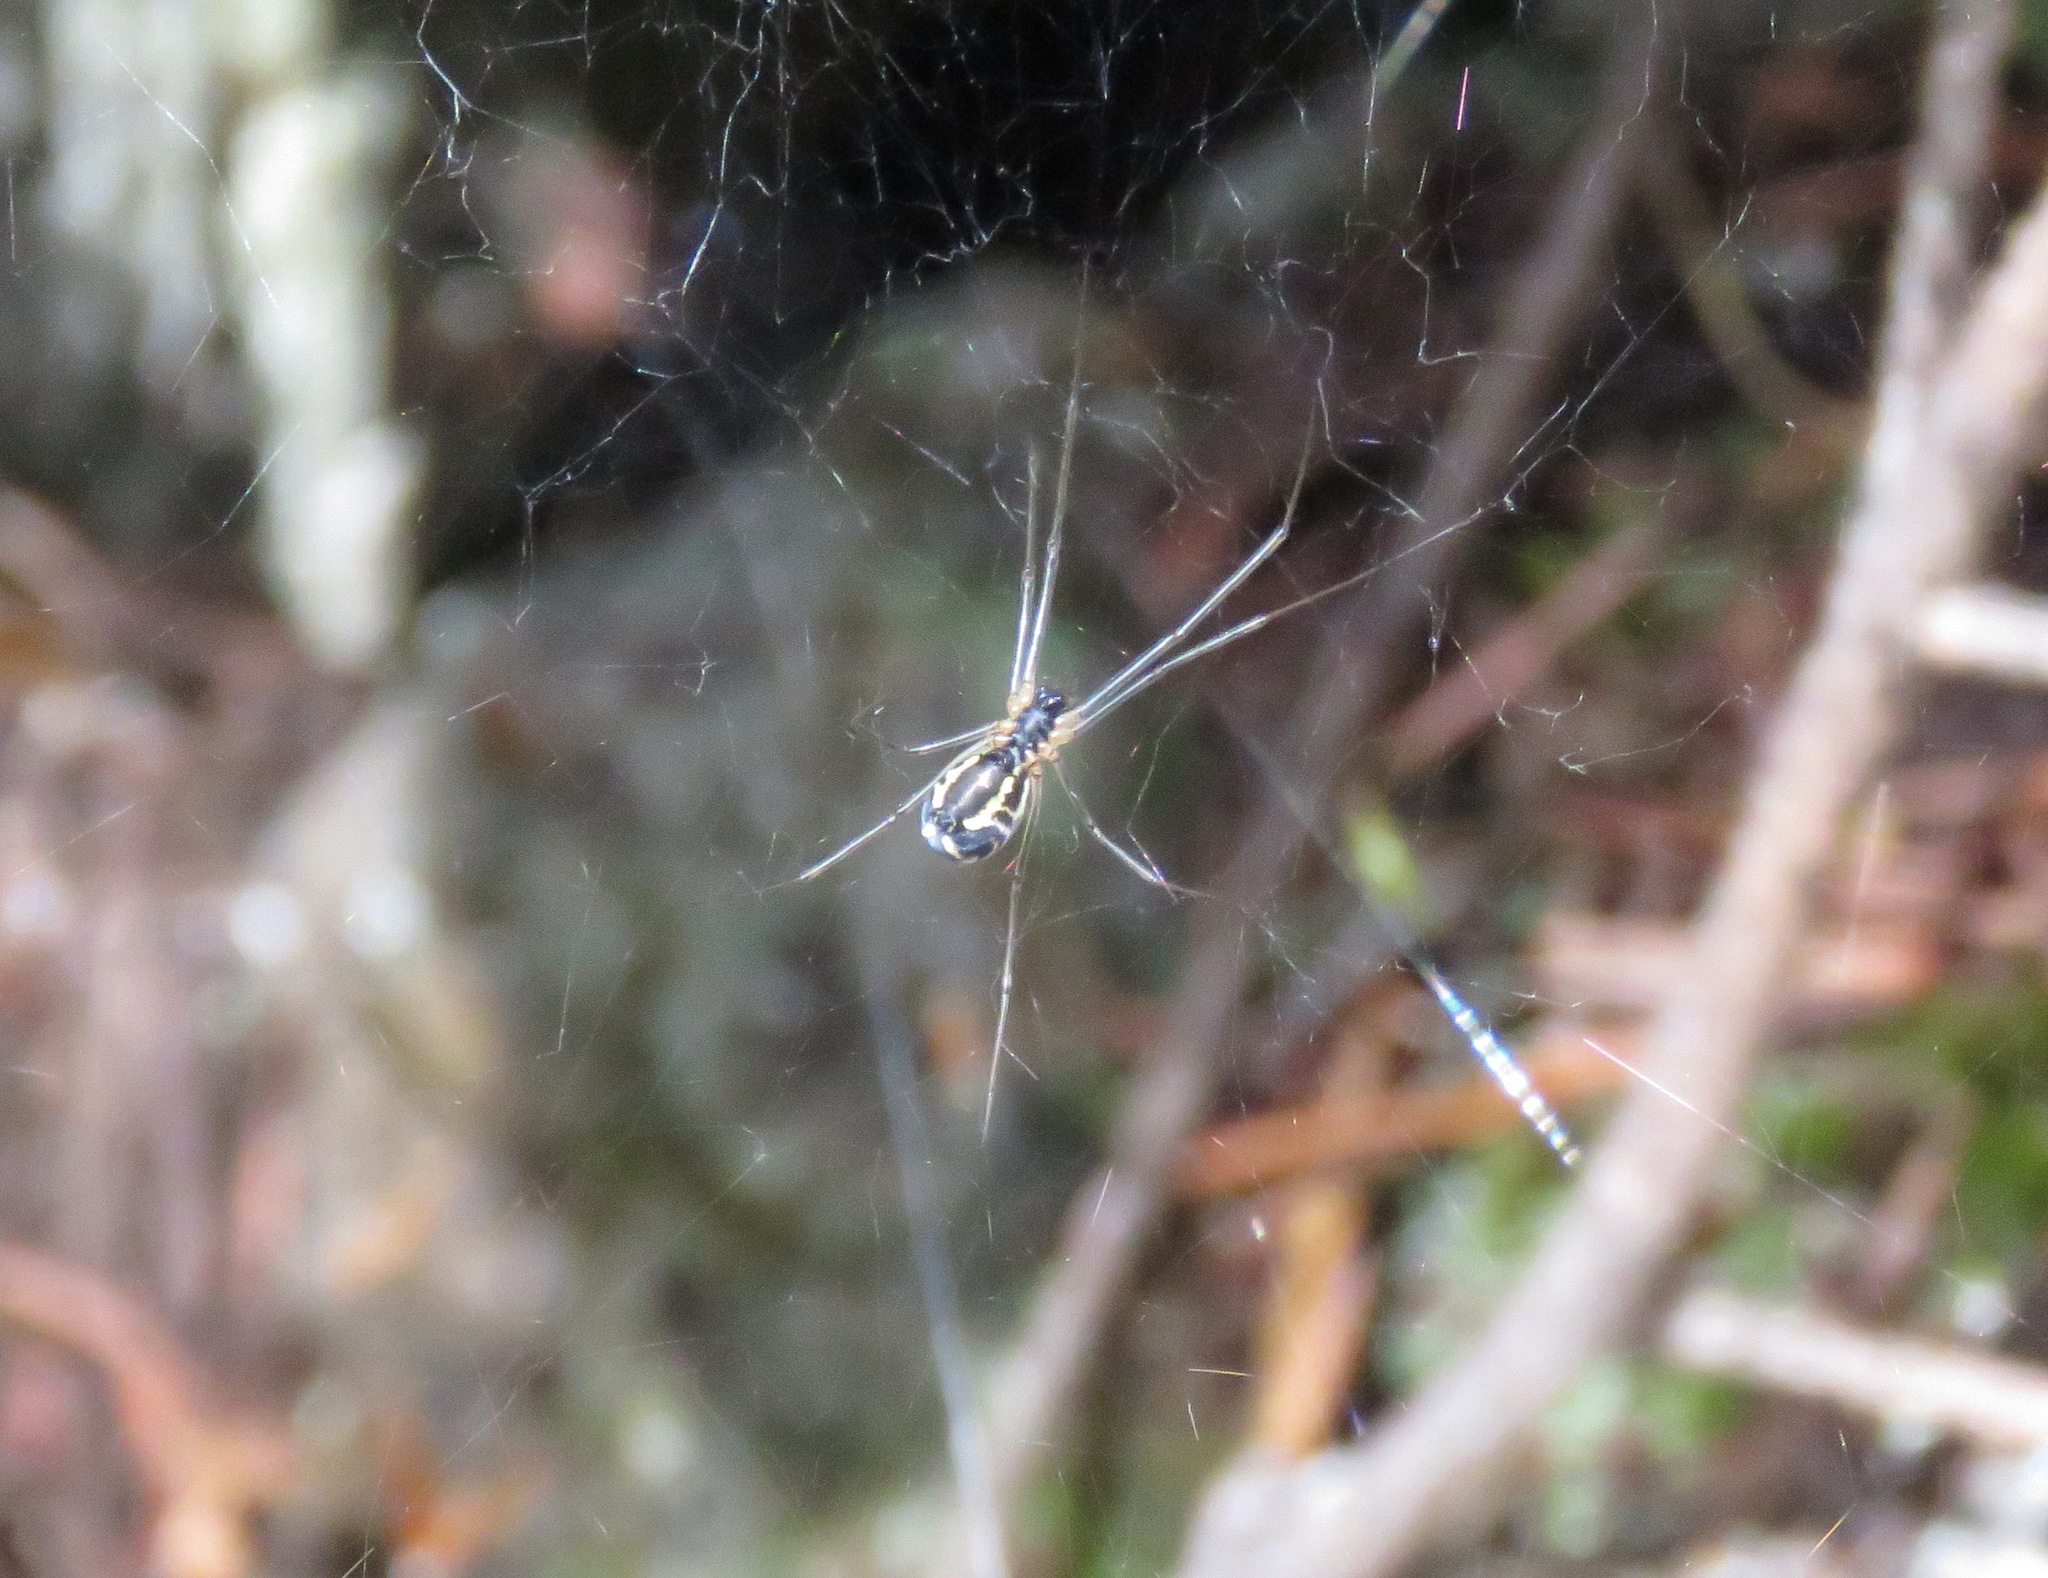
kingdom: Animalia
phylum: Arthropoda
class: Arachnida
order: Araneae
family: Linyphiidae
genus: Neriene
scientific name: Neriene radiata
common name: Filmy dome spider
